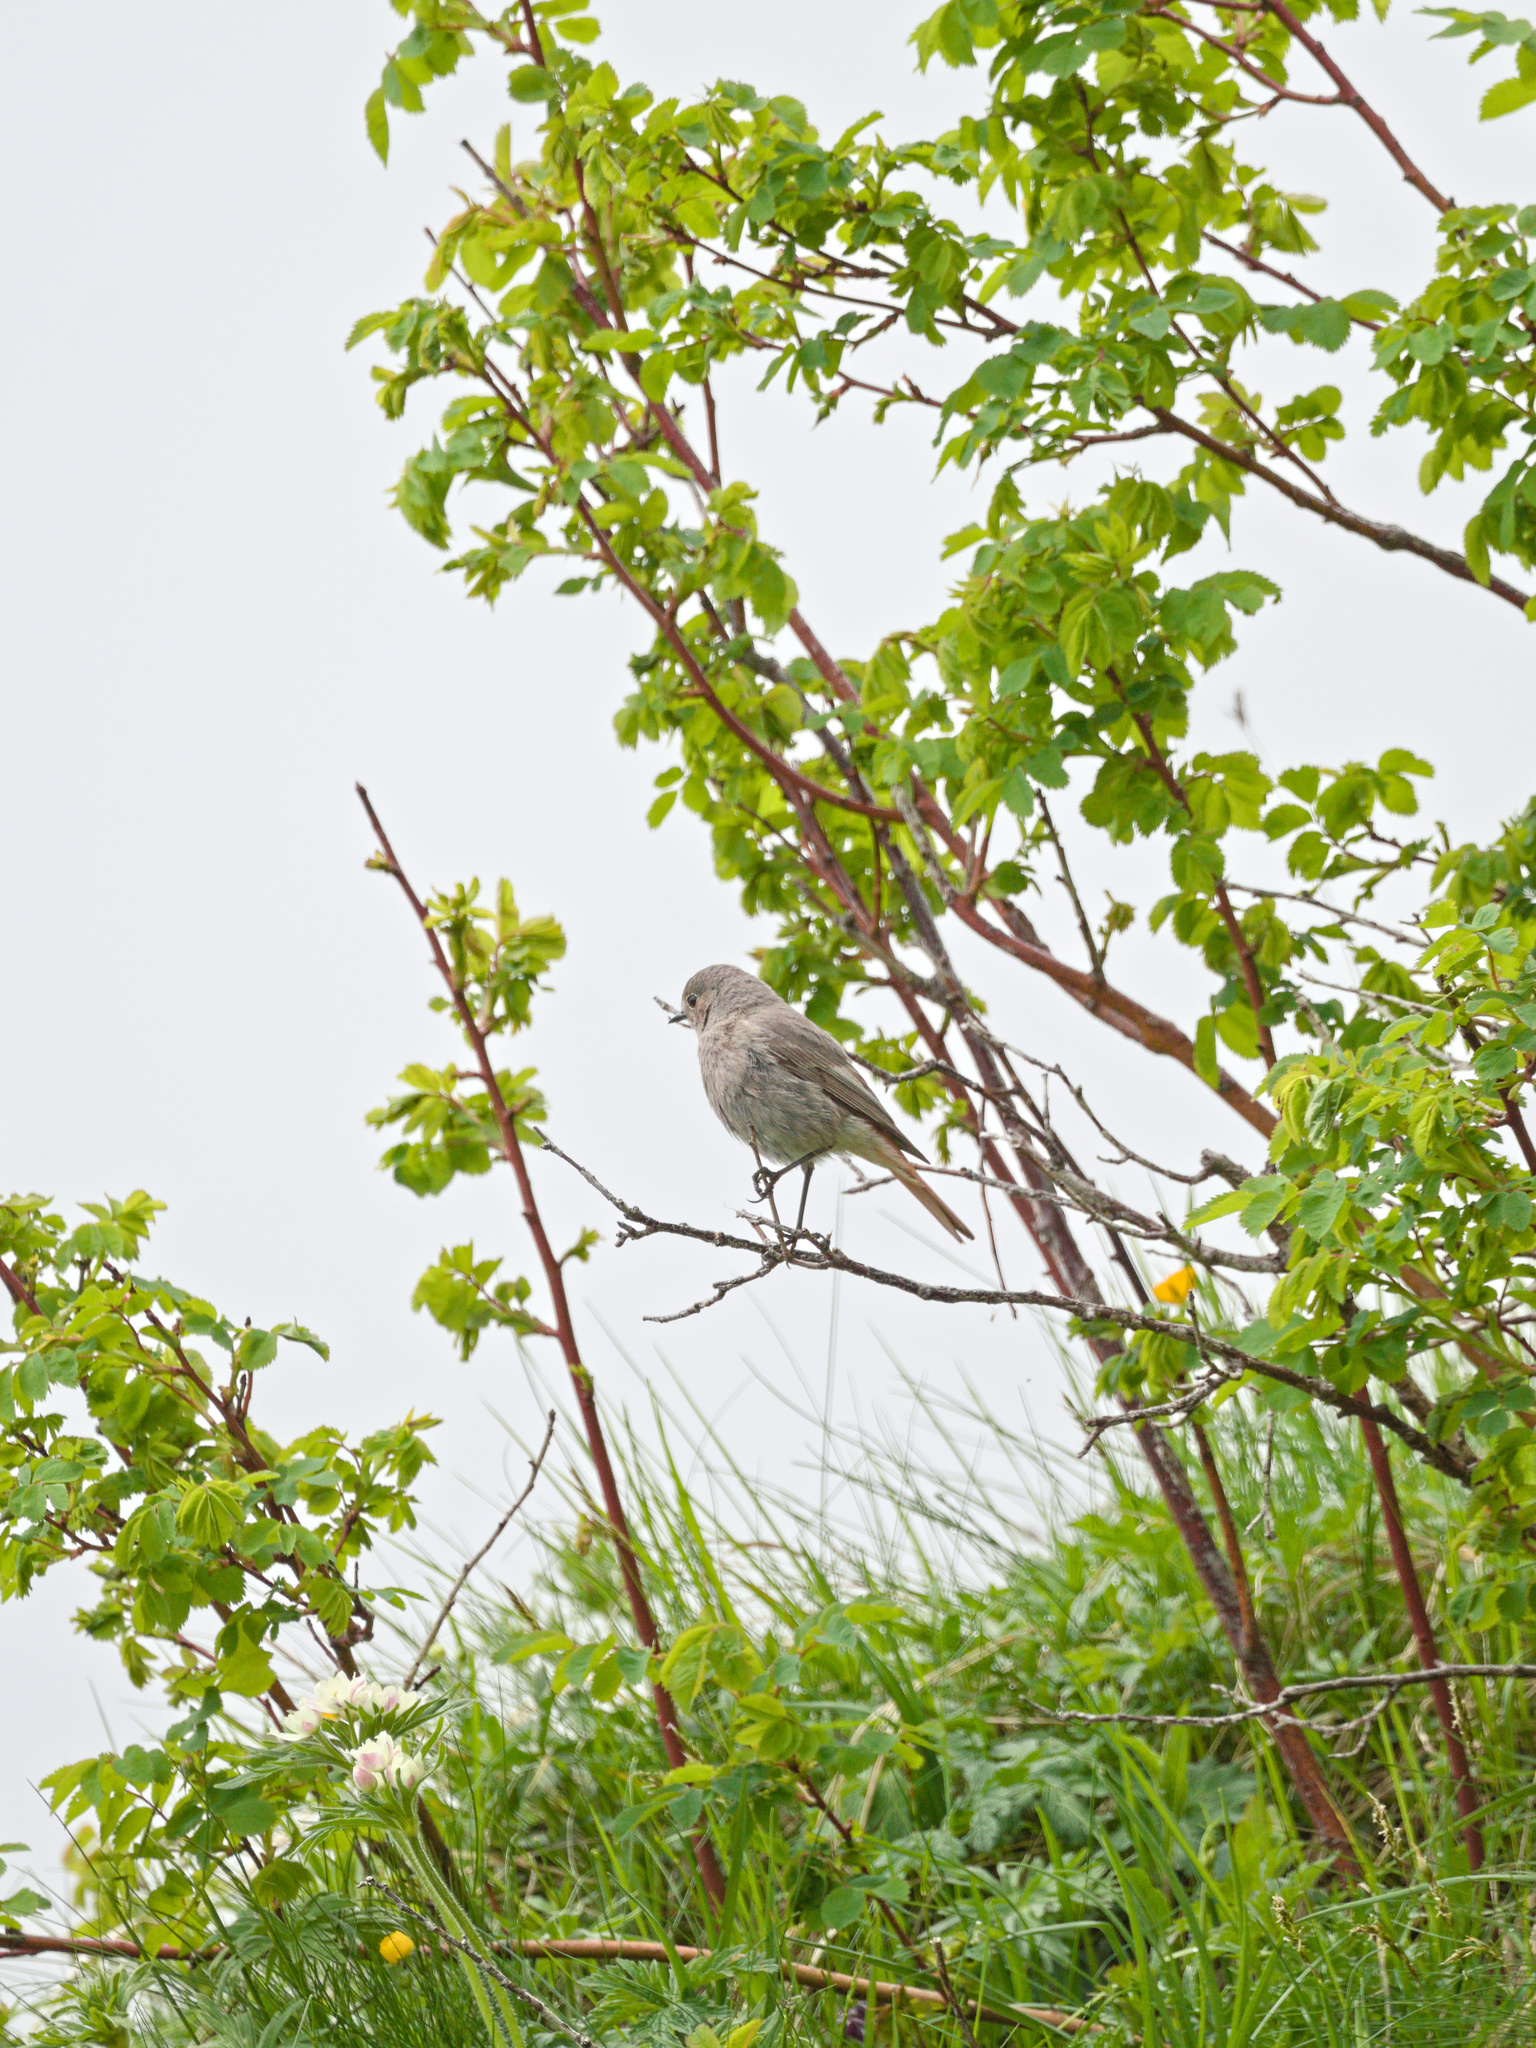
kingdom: Animalia
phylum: Chordata
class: Aves
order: Passeriformes
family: Muscicapidae
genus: Phoenicurus
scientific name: Phoenicurus ochruros
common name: Black redstart
